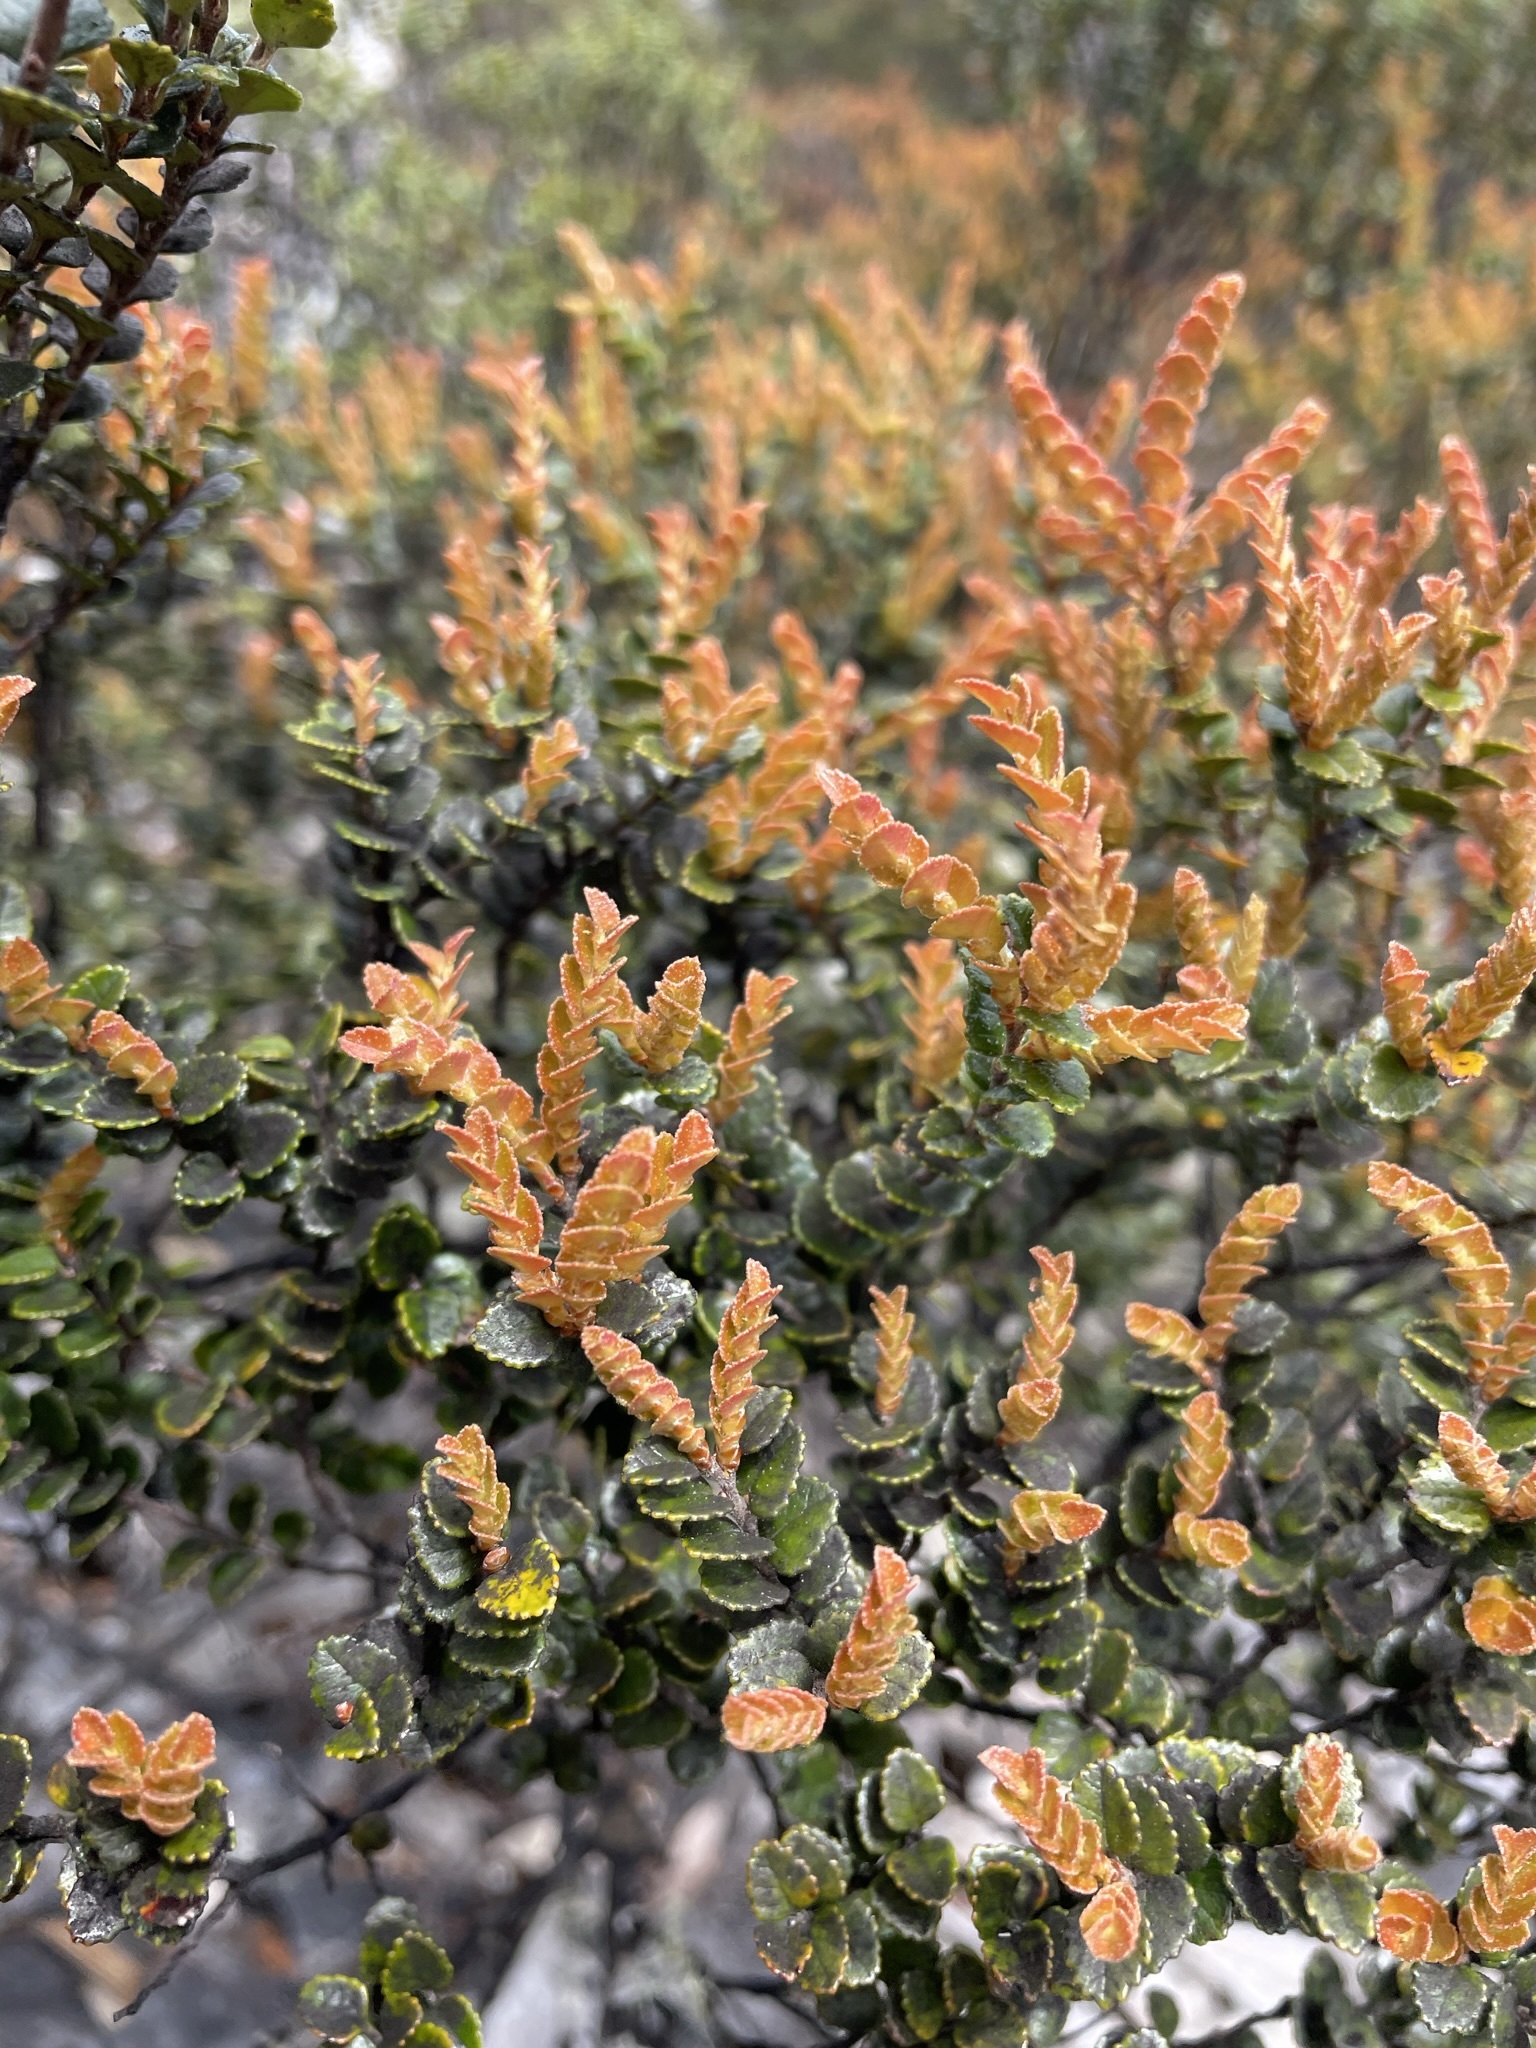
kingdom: Plantae
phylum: Tracheophyta
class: Magnoliopsida
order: Fagales
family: Nothofagaceae
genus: Nothofagus
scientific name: Nothofagus cunninghamii
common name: Myrtle beech
